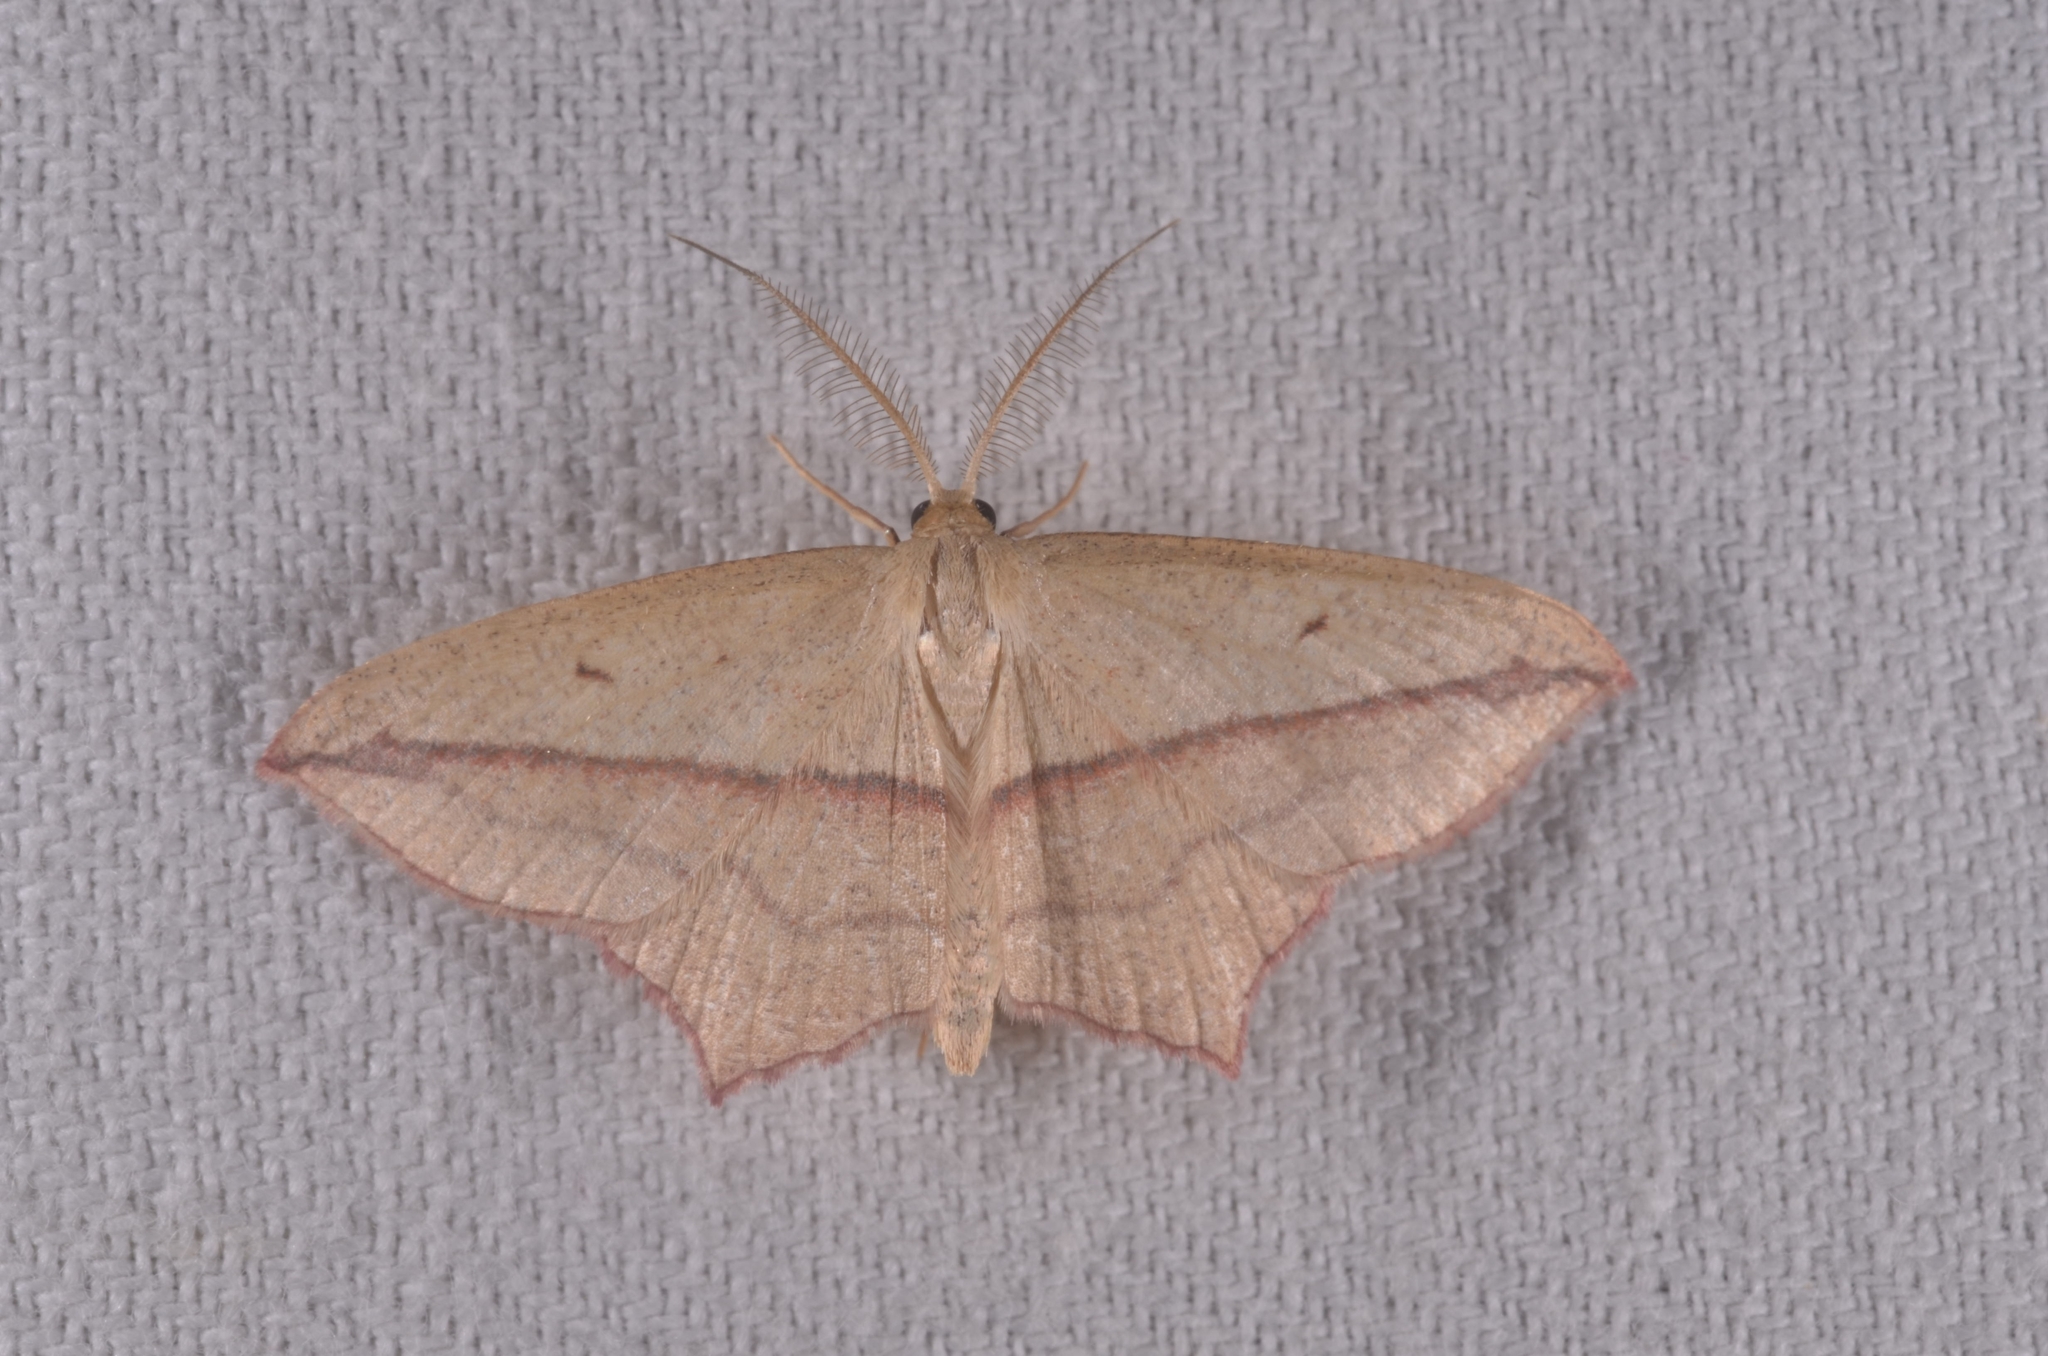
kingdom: Animalia
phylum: Arthropoda
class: Insecta
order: Lepidoptera
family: Geometridae
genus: Timandra
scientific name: Timandra comae
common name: Blood-vein
